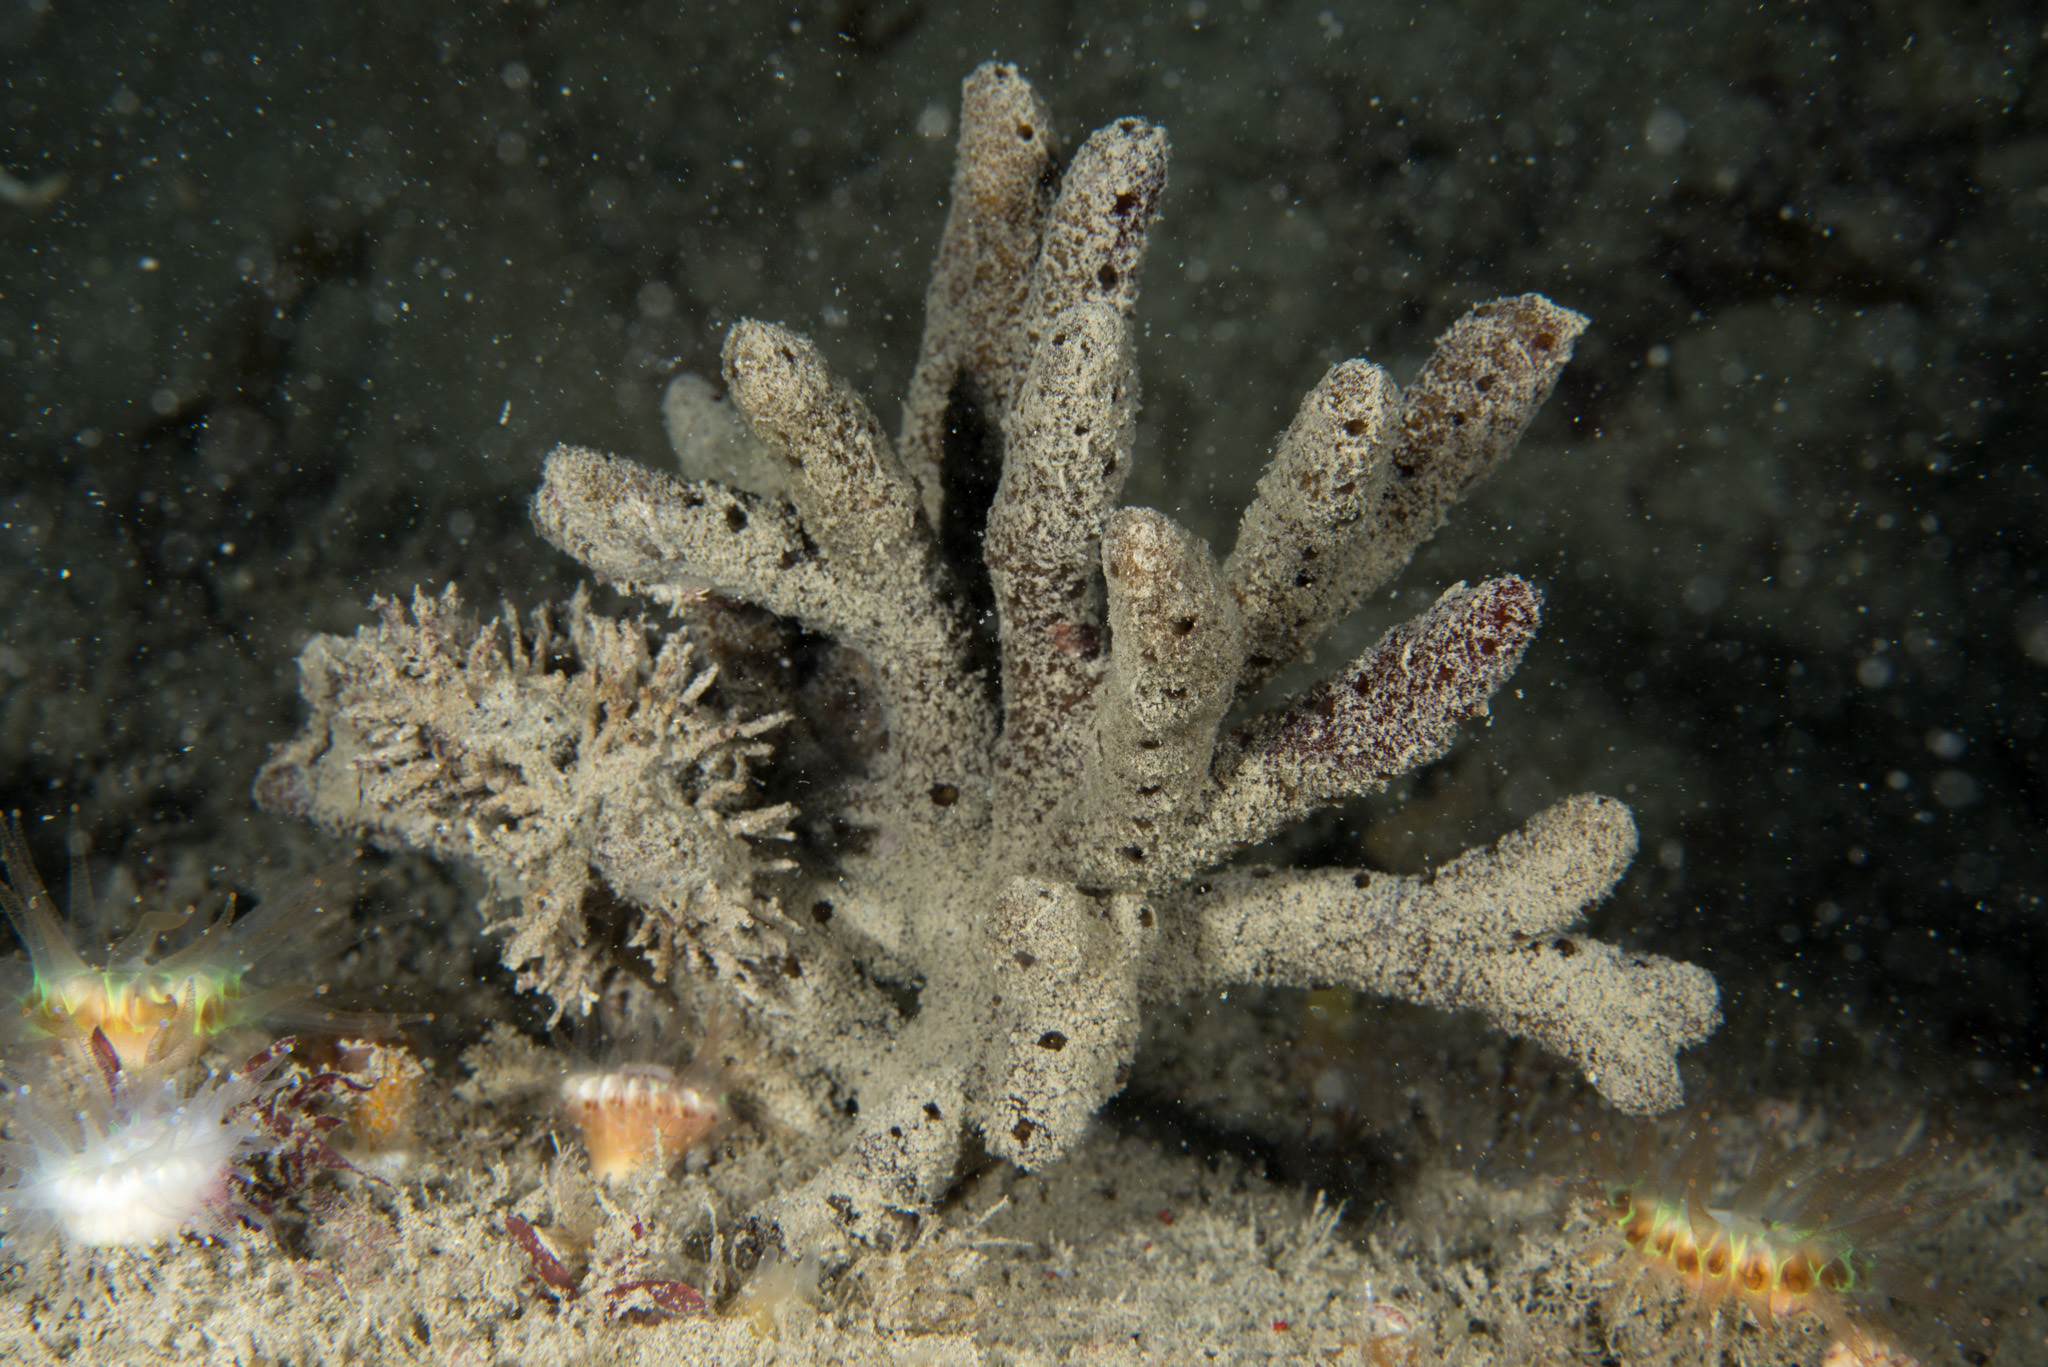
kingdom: Animalia
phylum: Porifera
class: Demospongiae
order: Axinellida
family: Raspailiidae
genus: Raspailia
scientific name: Raspailia ramosa
